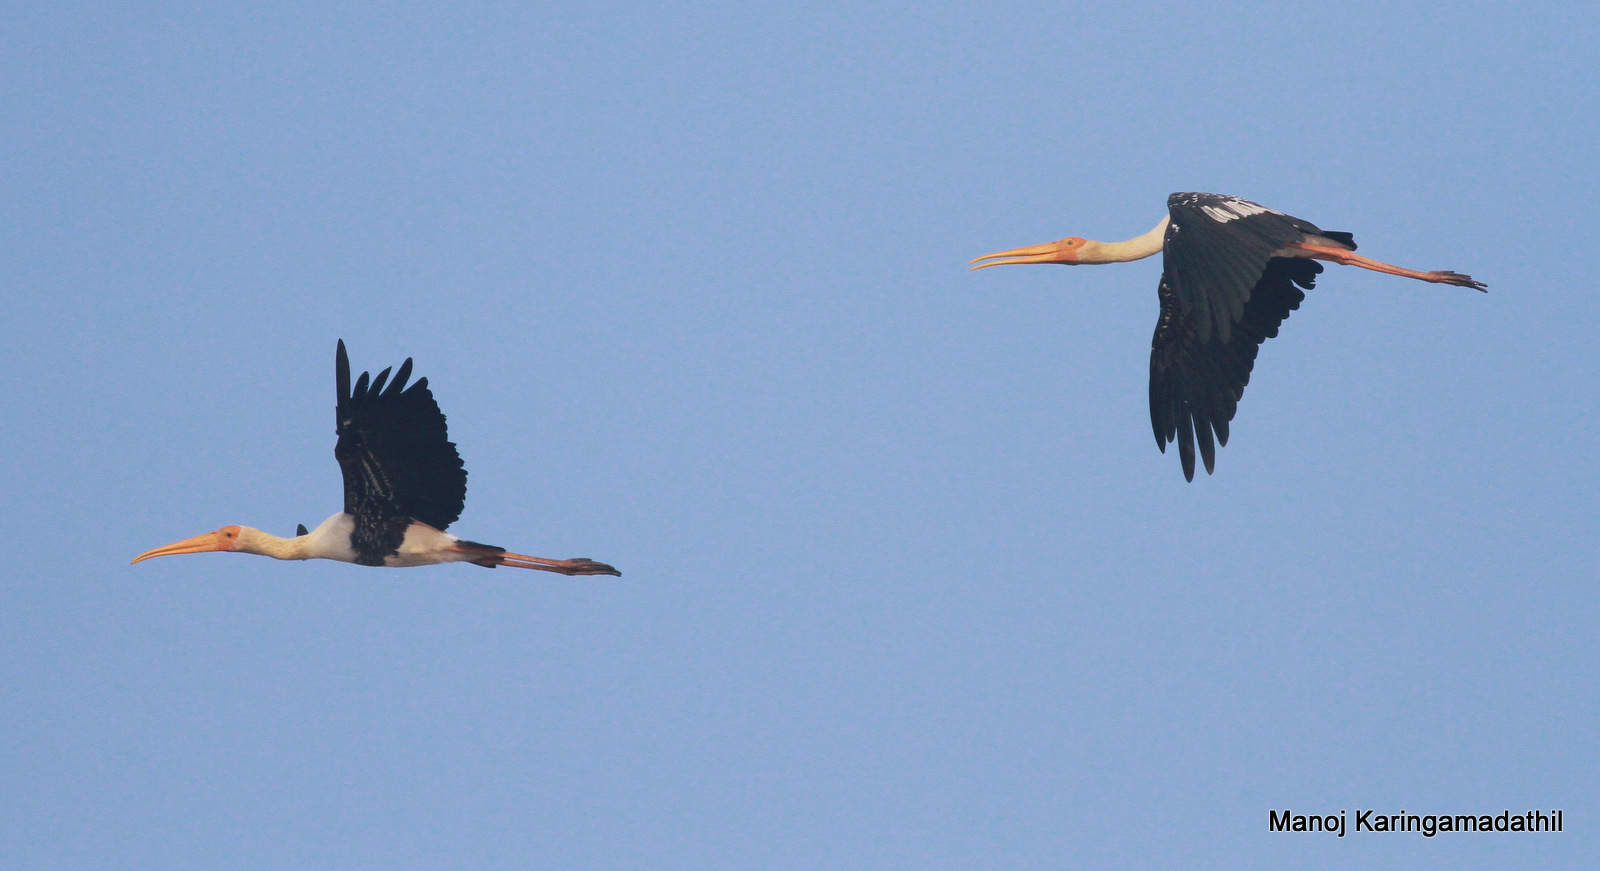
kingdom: Animalia
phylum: Chordata
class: Aves
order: Ciconiiformes
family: Ciconiidae
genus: Mycteria
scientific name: Mycteria leucocephala
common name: Painted stork
